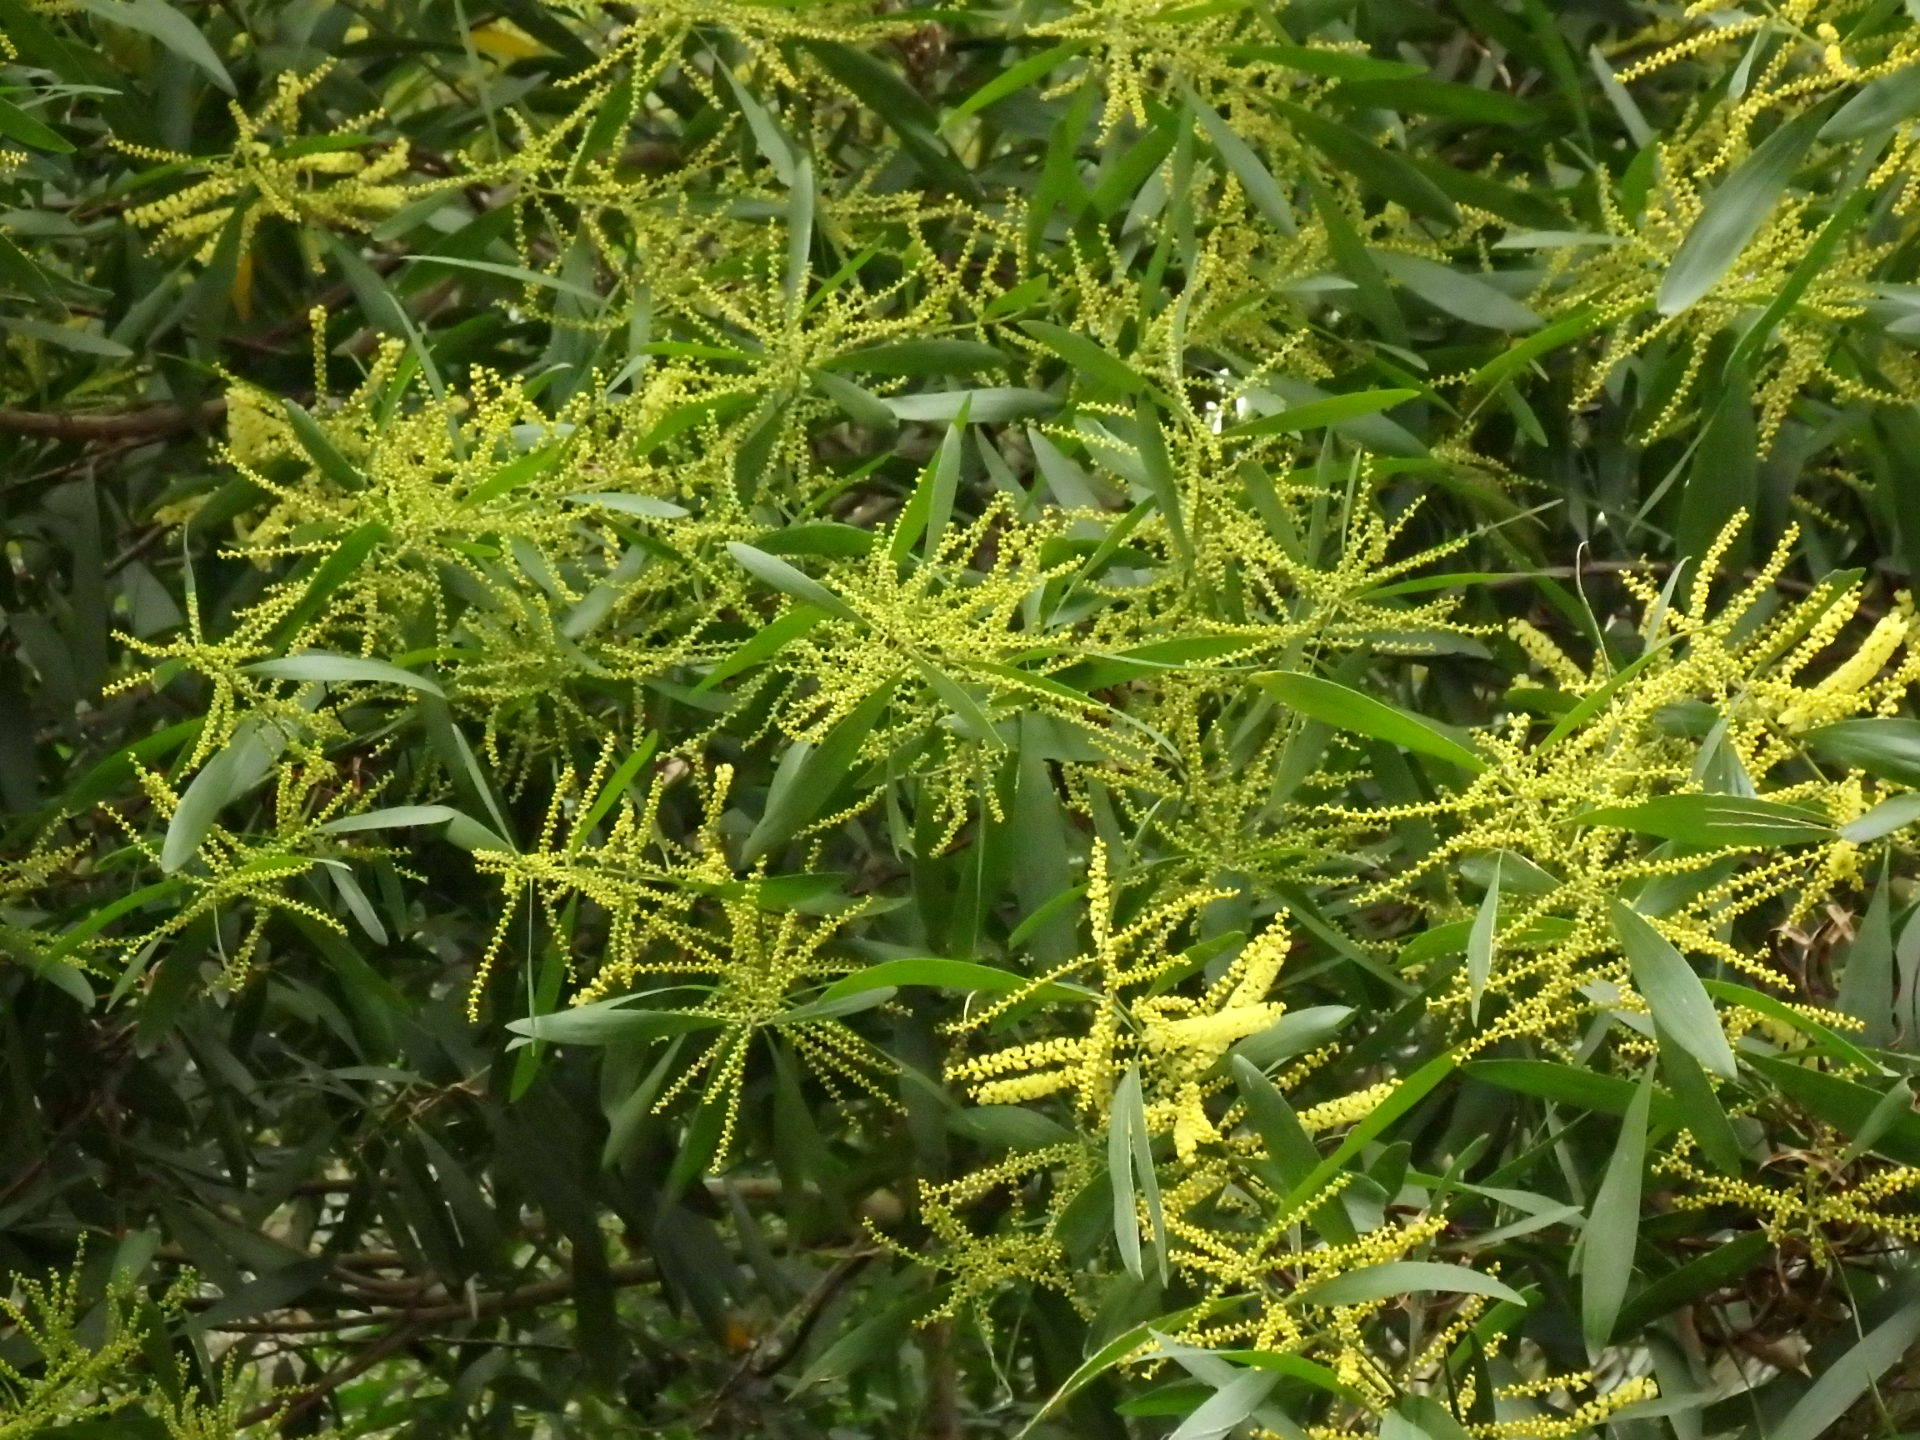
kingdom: Plantae
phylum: Tracheophyta
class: Magnoliopsida
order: Fabales
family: Fabaceae
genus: Acacia
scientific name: Acacia longifolia
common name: Sydney golden wattle
